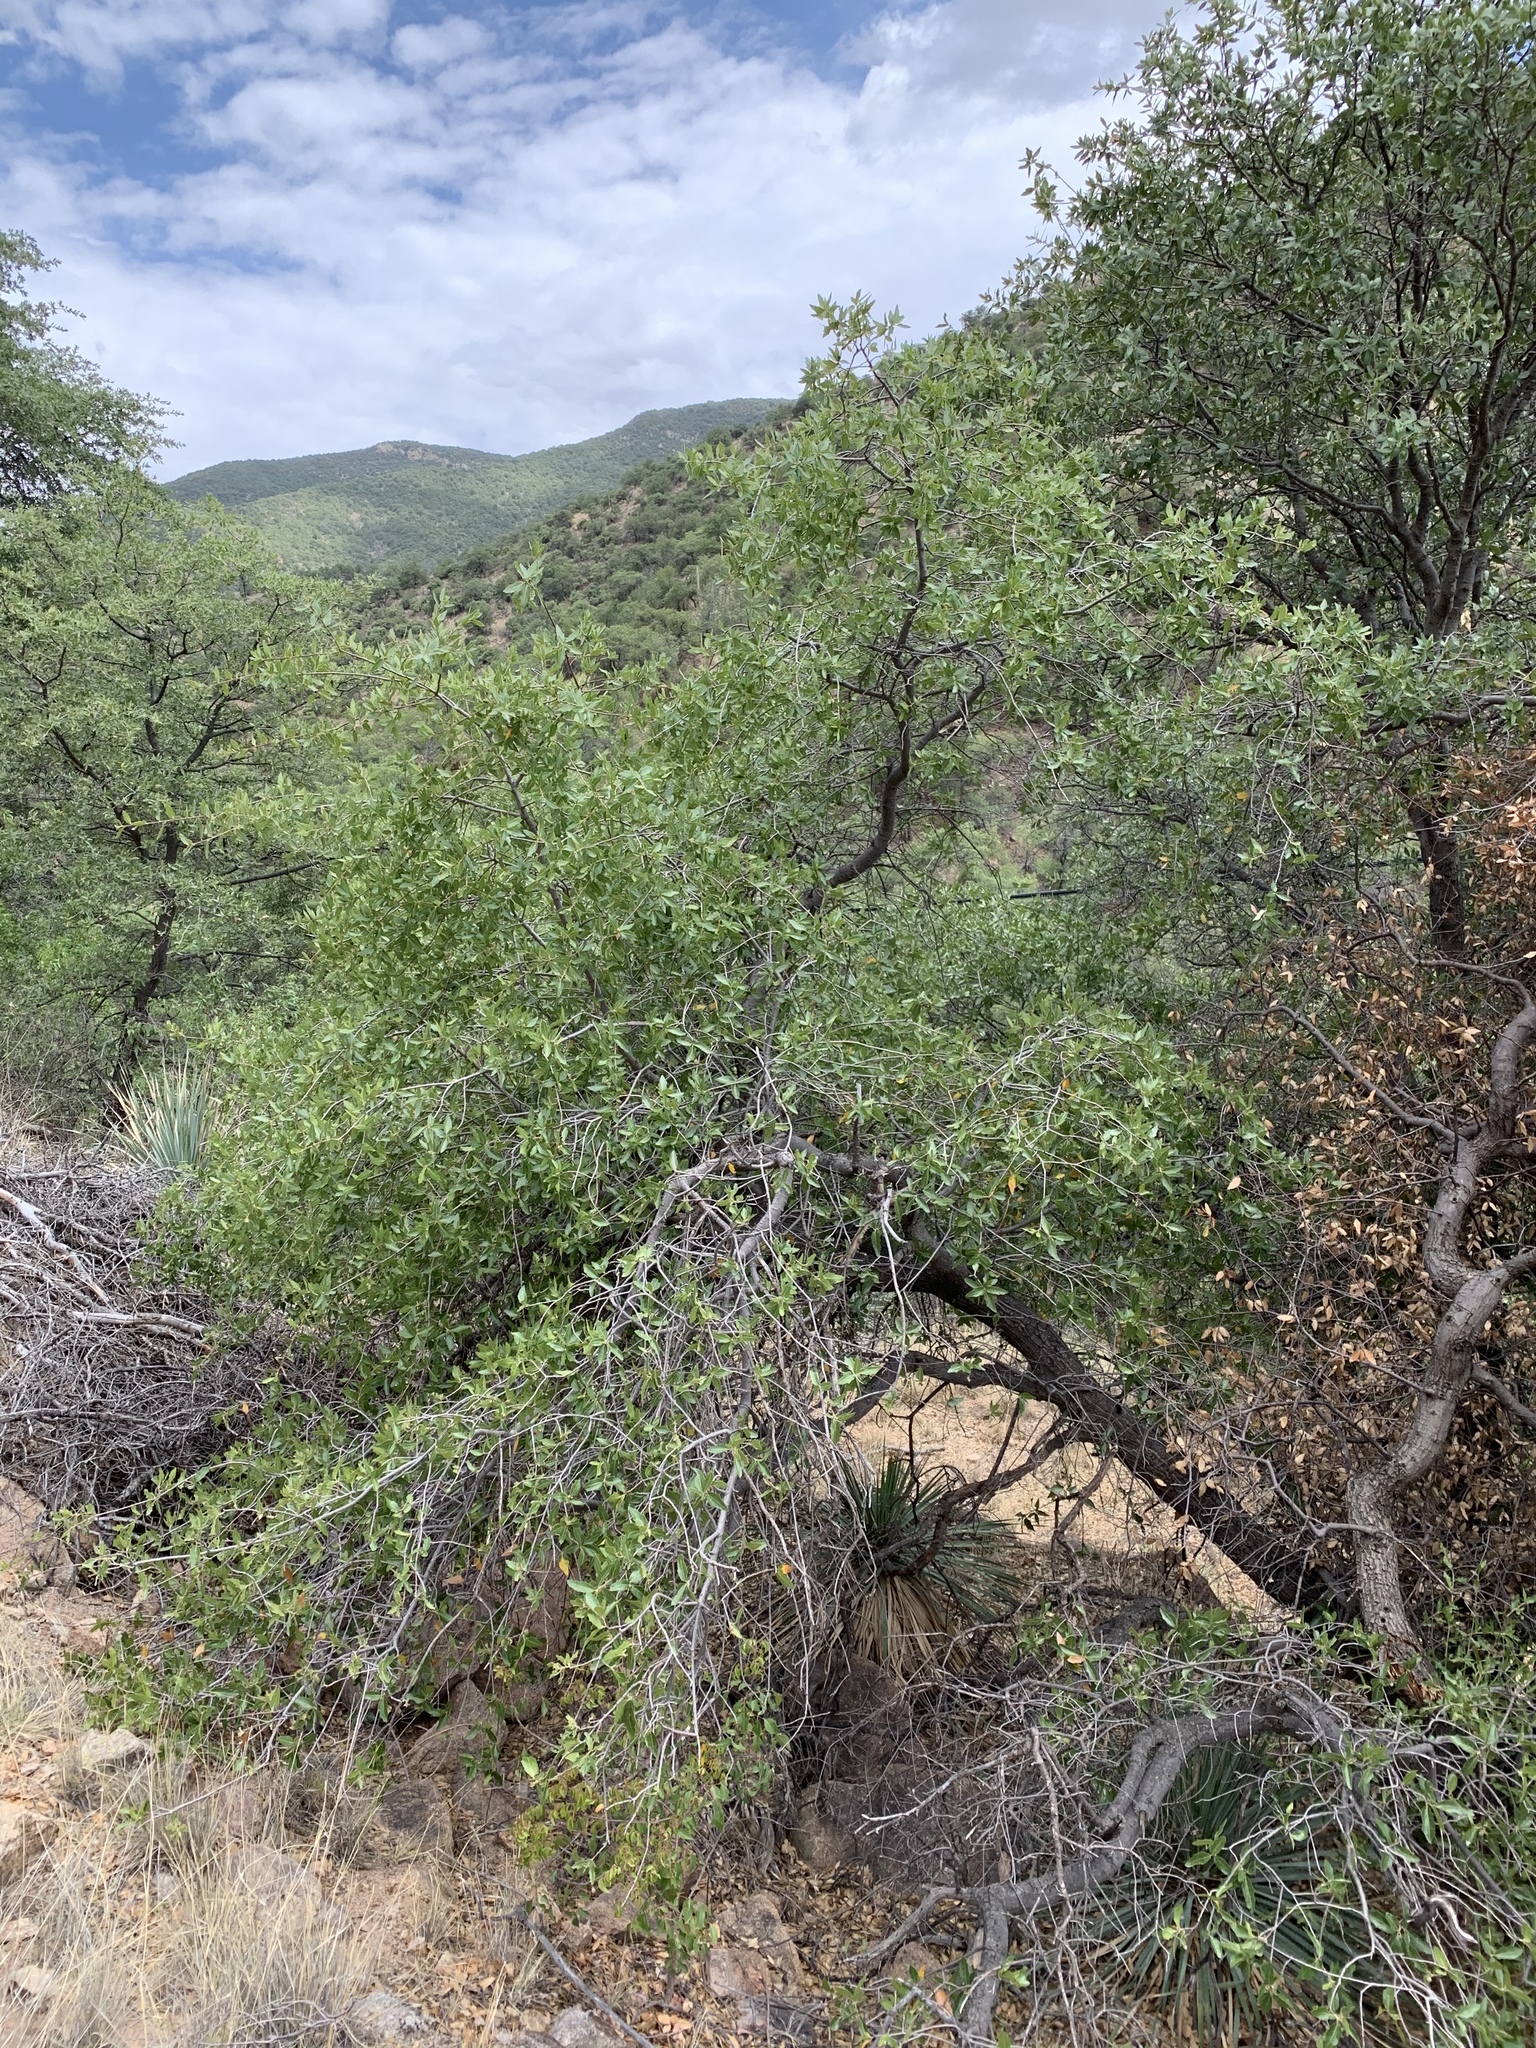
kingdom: Plantae
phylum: Tracheophyta
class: Magnoliopsida
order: Fagales
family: Fagaceae
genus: Quercus
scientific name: Quercus emoryi
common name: Emory oak
